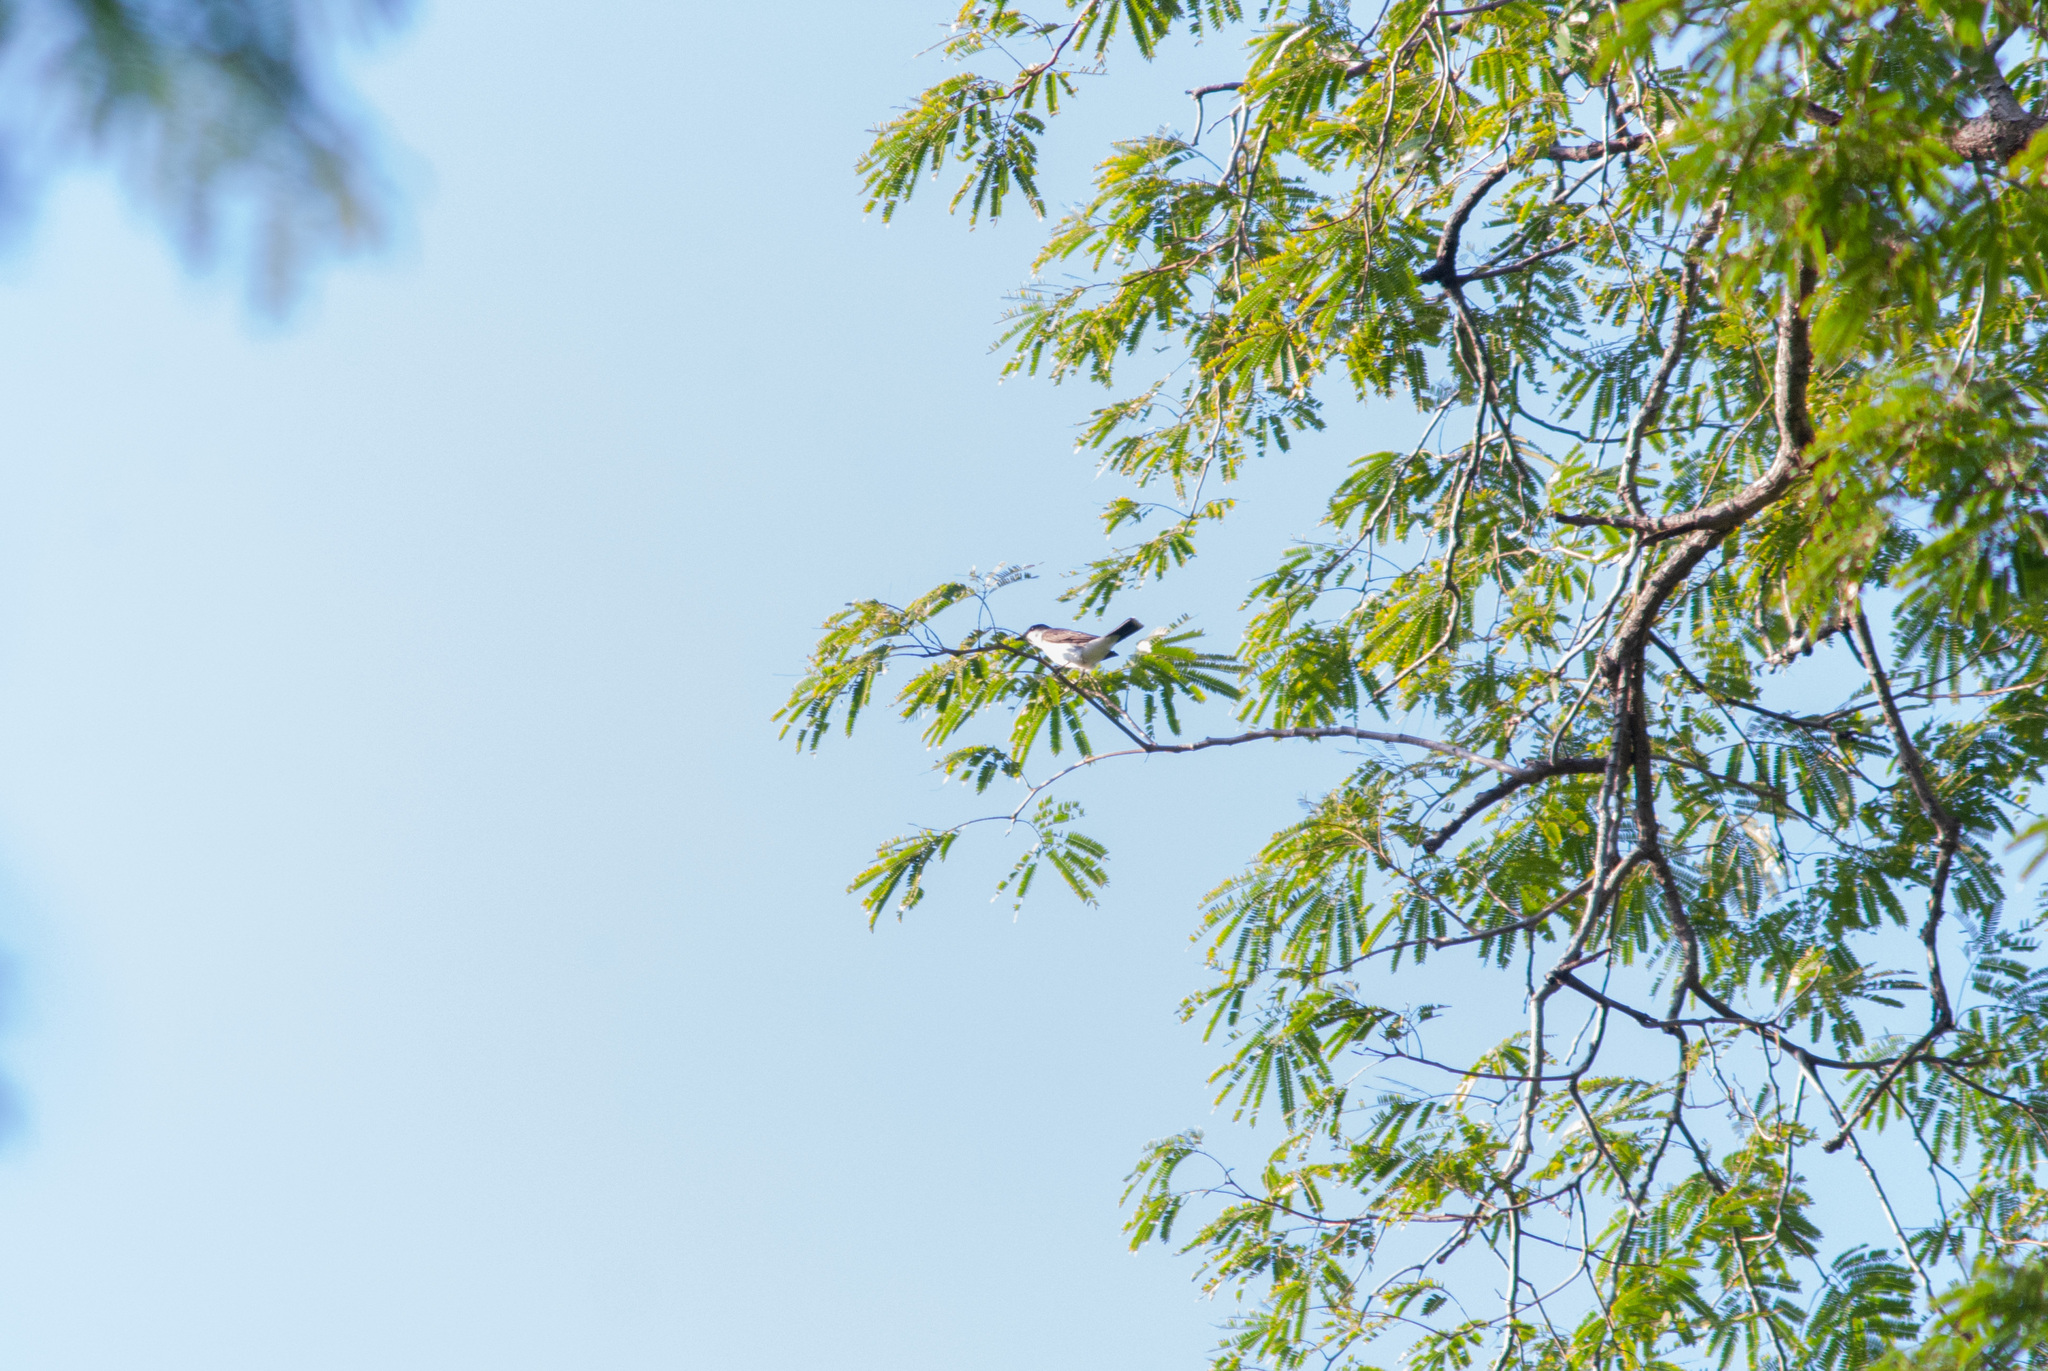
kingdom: Animalia
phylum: Chordata
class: Aves
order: Passeriformes
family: Tyrannidae
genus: Tyrannus
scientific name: Tyrannus tyrannus
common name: Eastern kingbird
